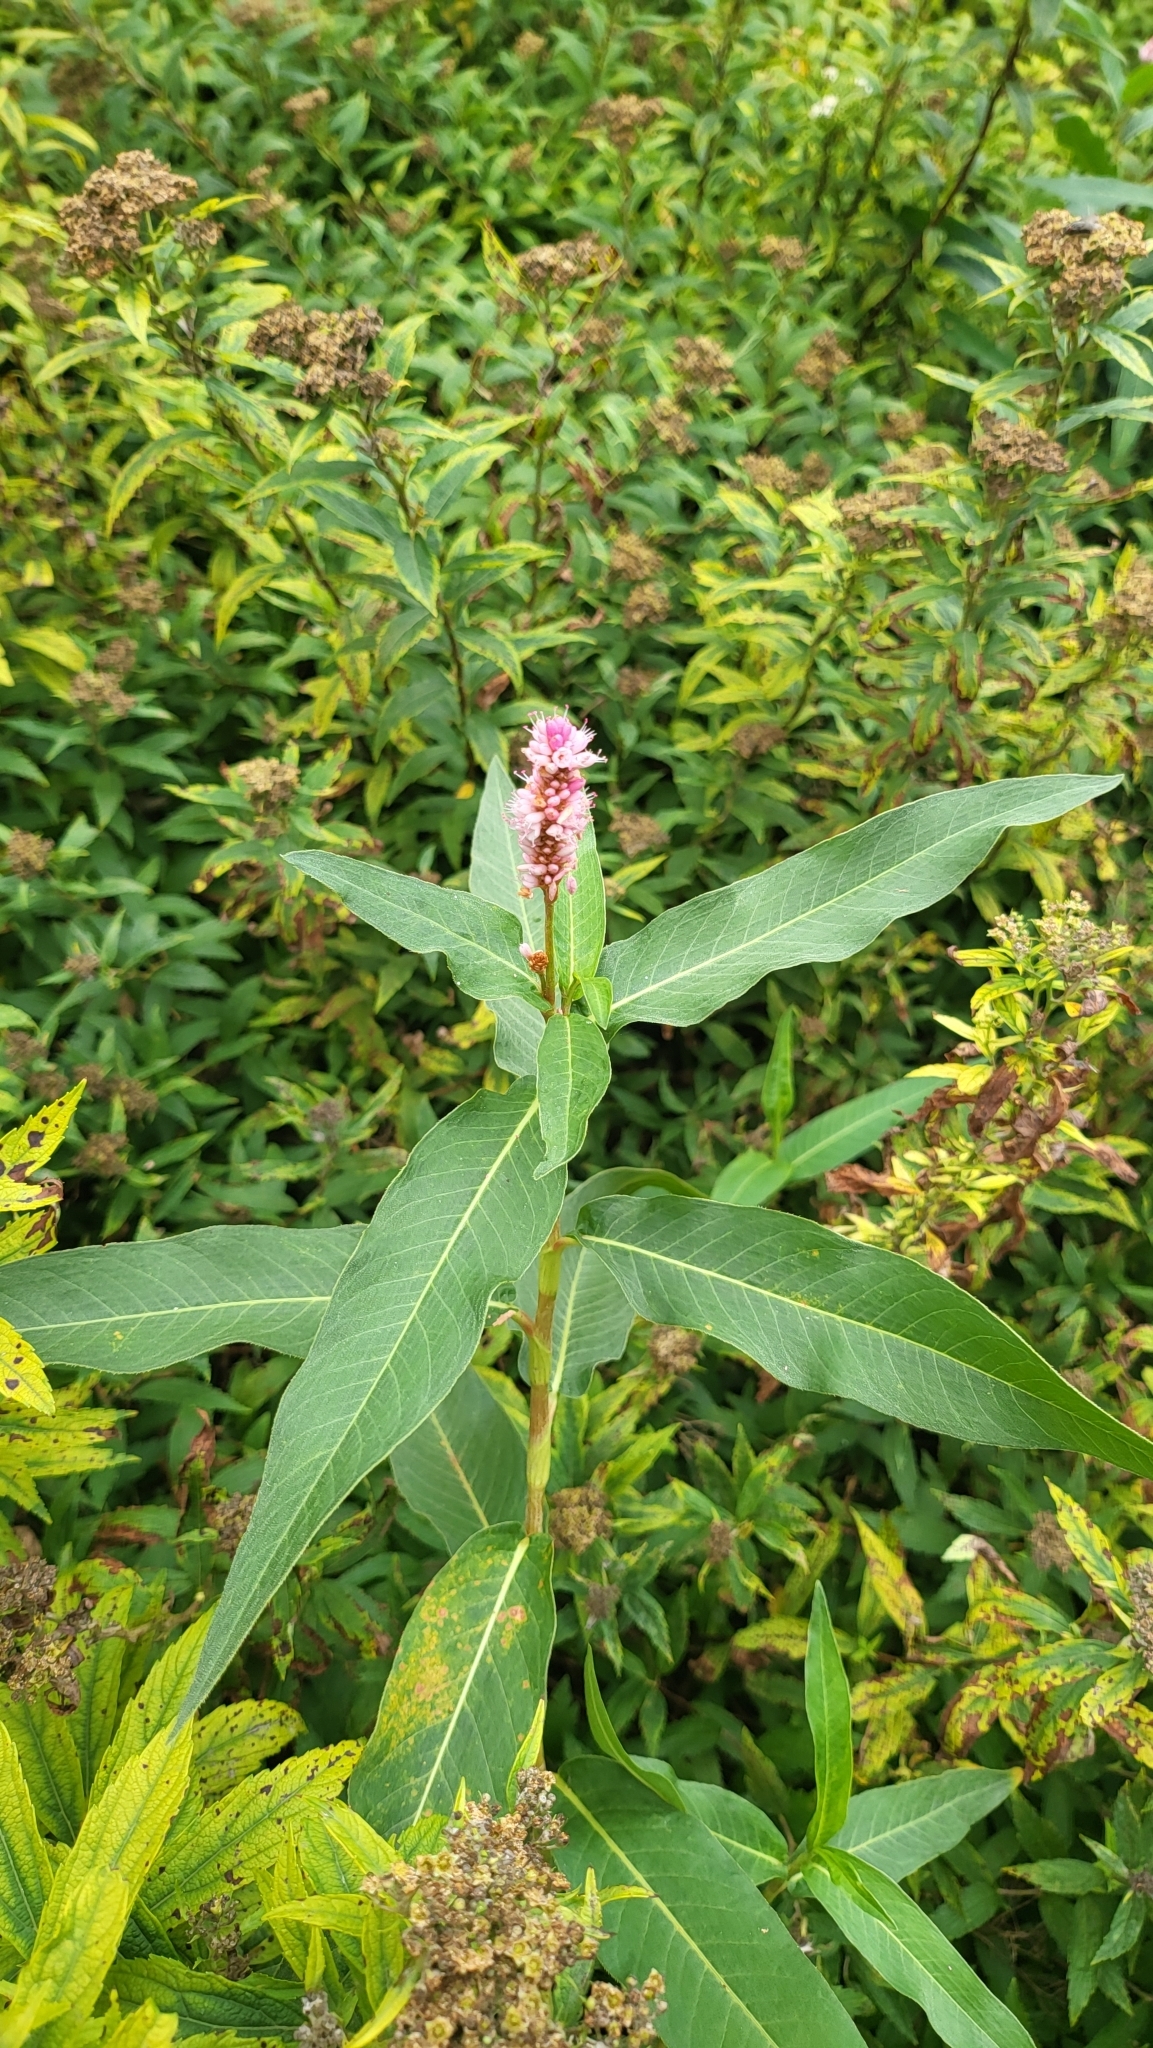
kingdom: Plantae
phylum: Tracheophyta
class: Magnoliopsida
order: Caryophyllales
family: Polygonaceae
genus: Persicaria
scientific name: Persicaria amphibia
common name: Amphibious bistort
